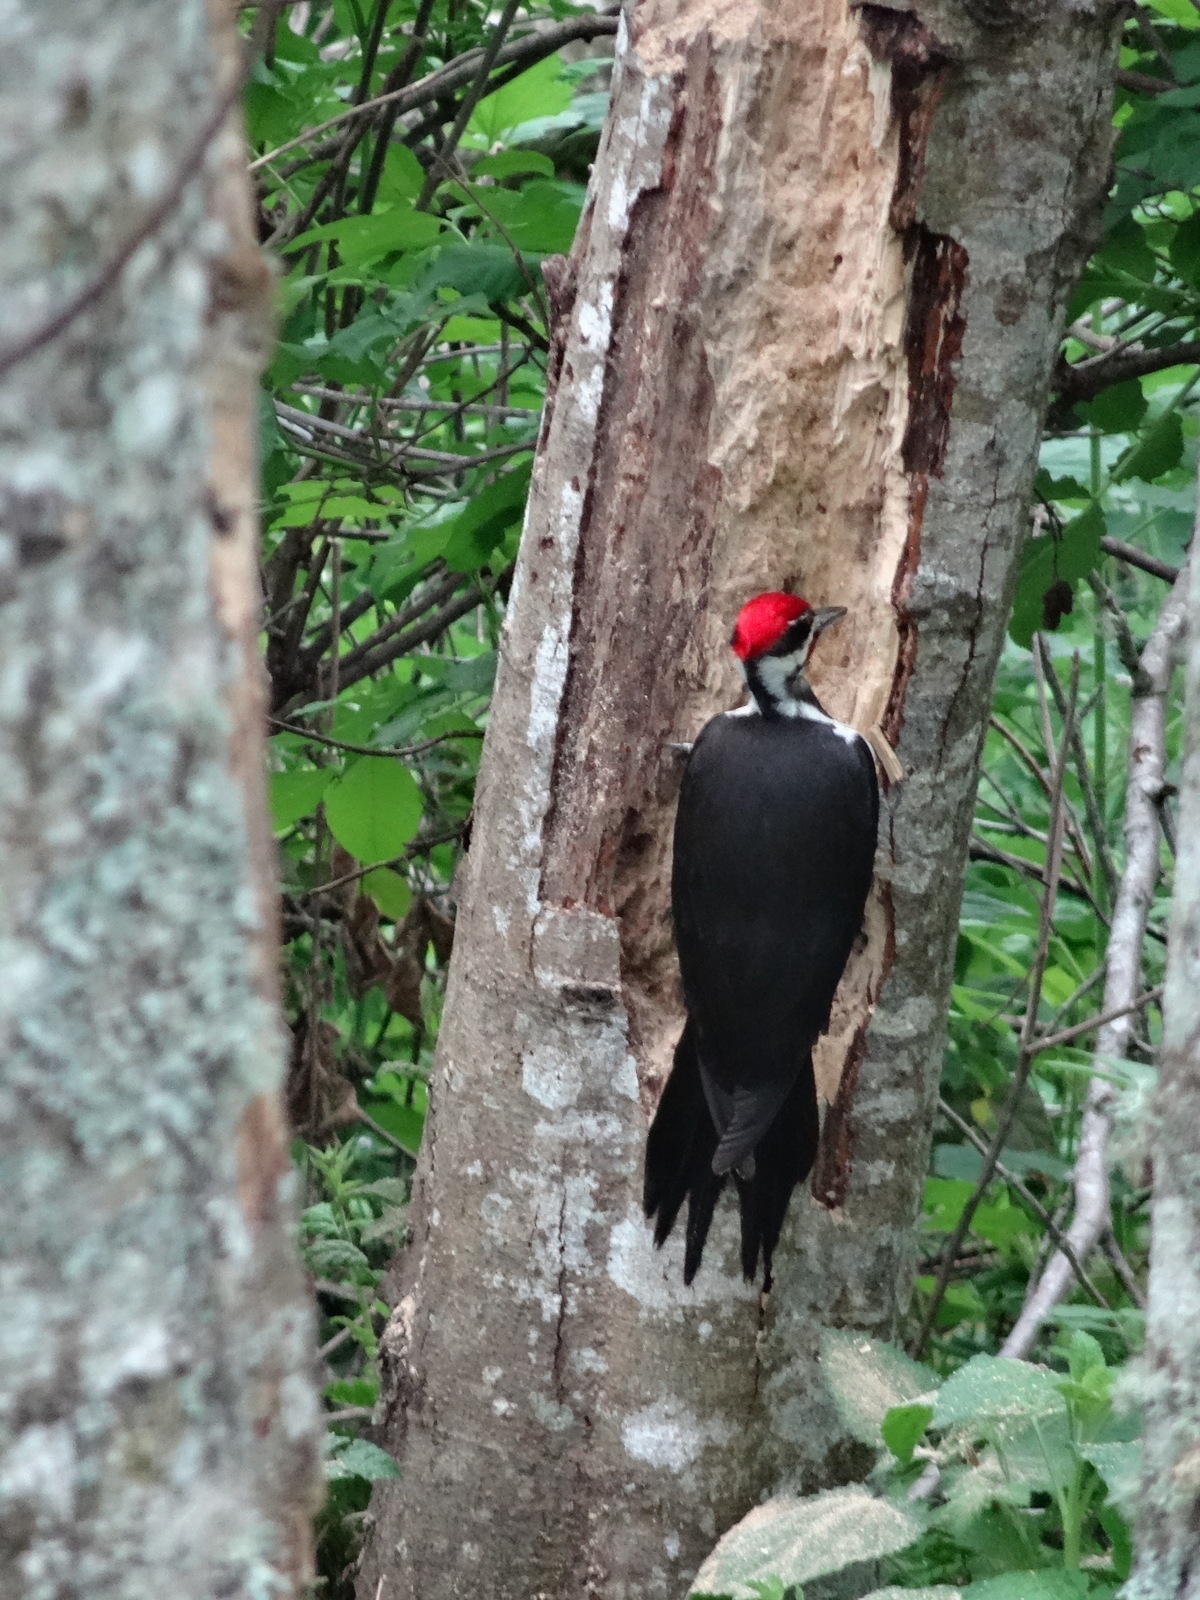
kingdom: Animalia
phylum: Chordata
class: Aves
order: Piciformes
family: Picidae
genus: Dryocopus
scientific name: Dryocopus pileatus
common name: Pileated woodpecker
